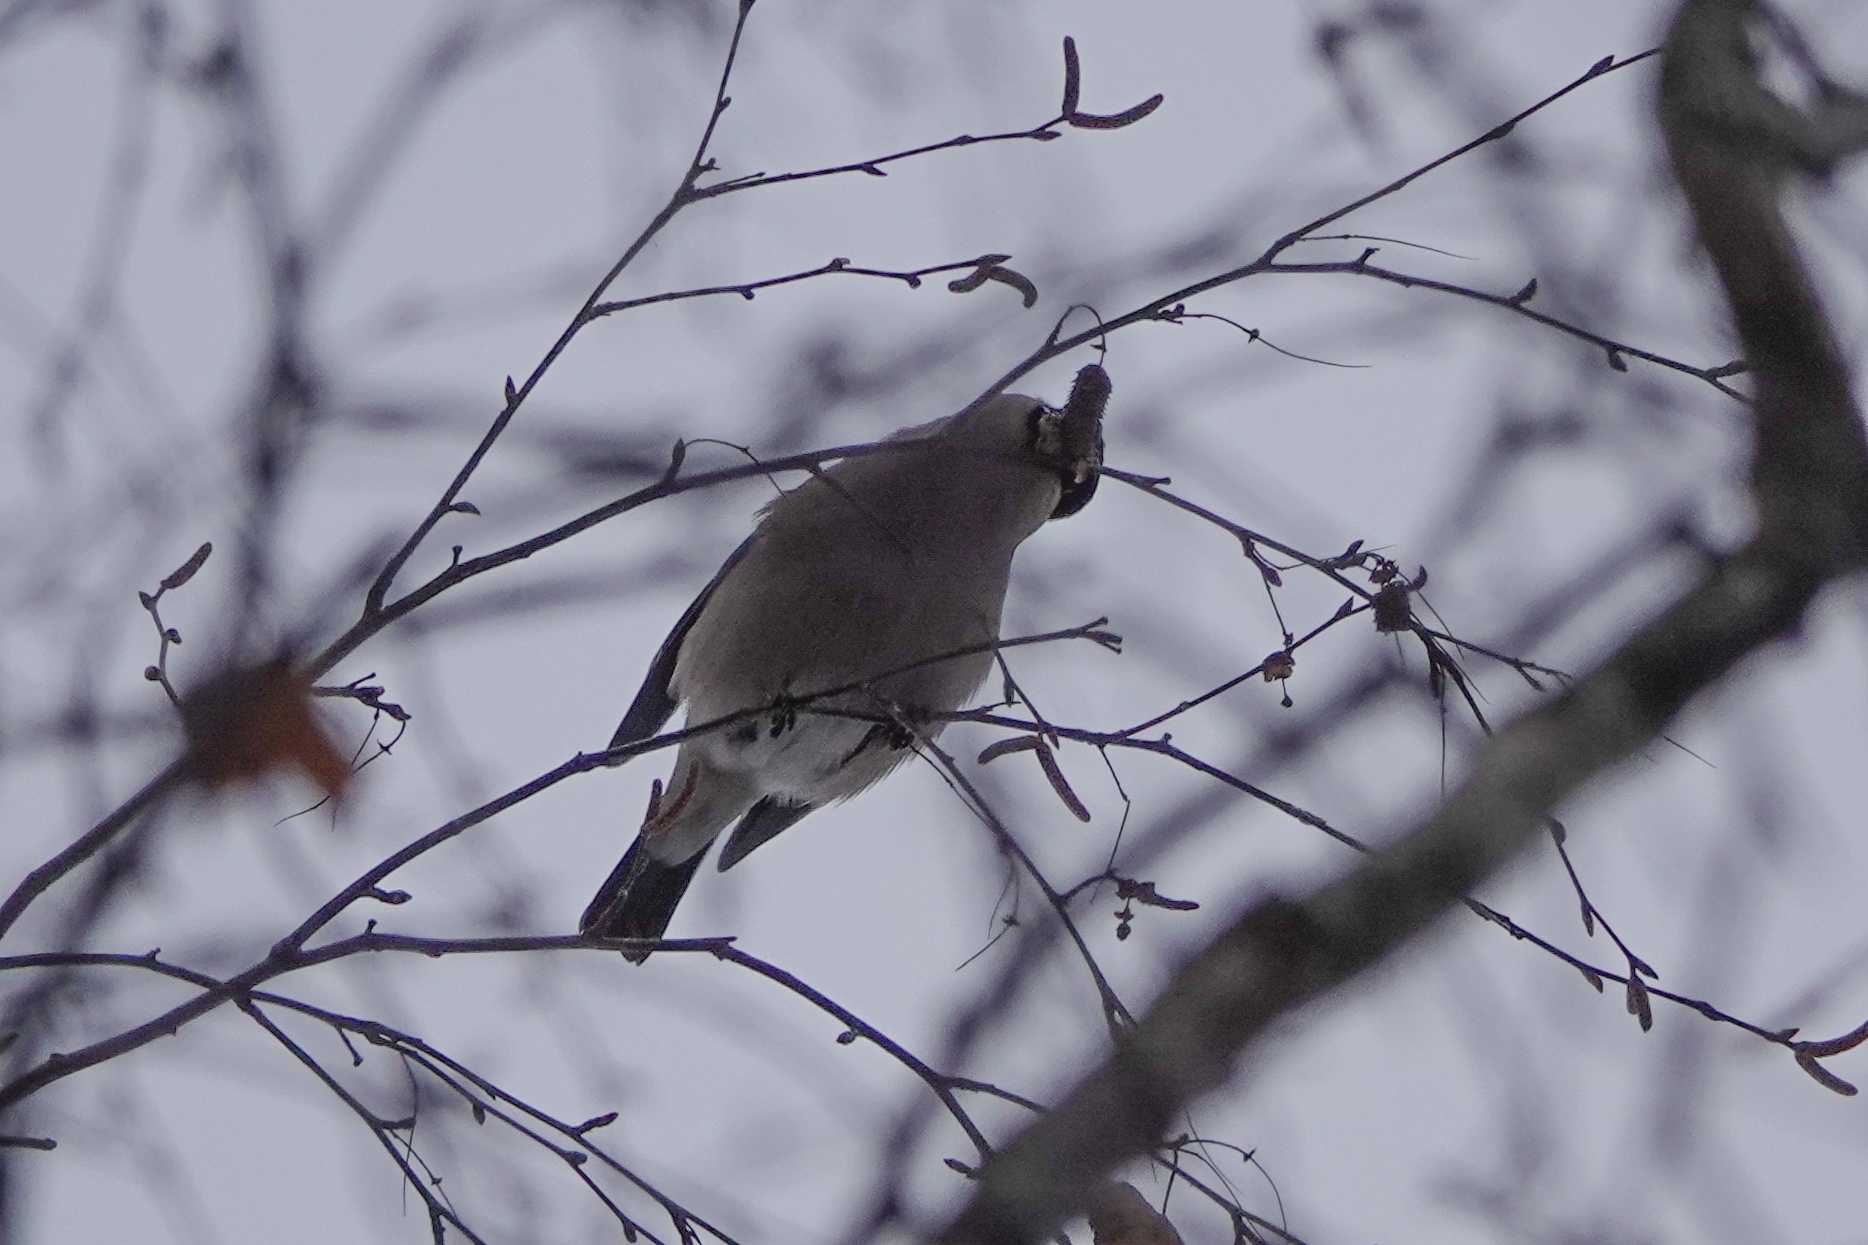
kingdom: Animalia
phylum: Chordata
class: Aves
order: Passeriformes
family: Fringillidae
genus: Pyrrhula
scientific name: Pyrrhula pyrrhula
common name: Eurasian bullfinch
